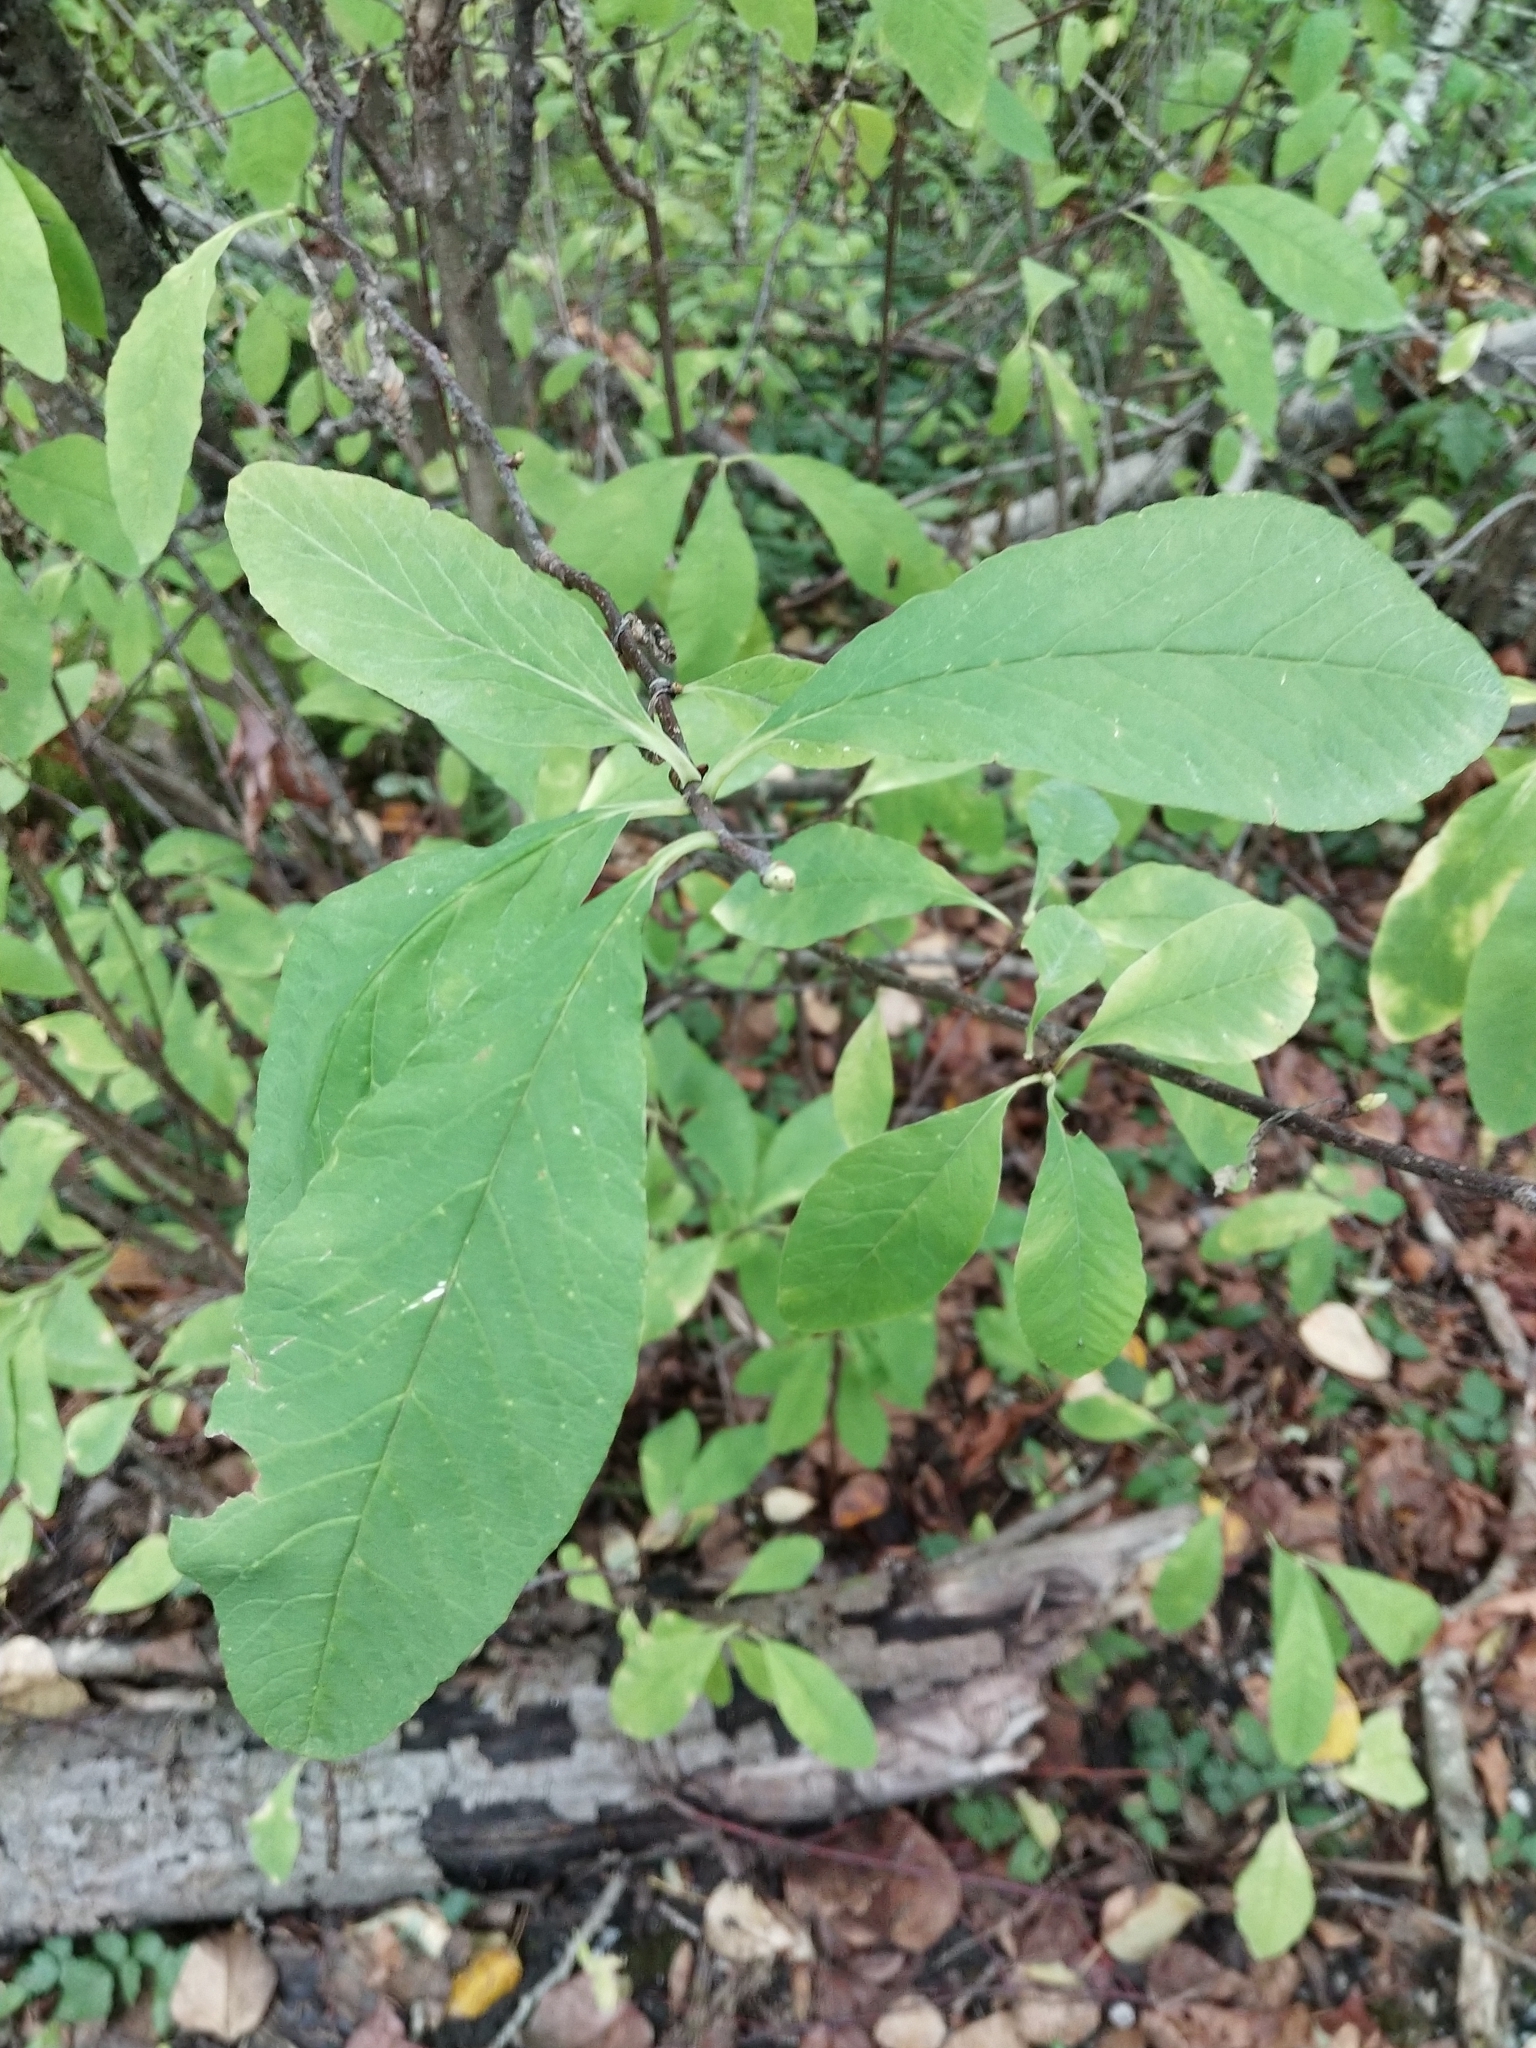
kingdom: Plantae
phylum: Tracheophyta
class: Magnoliopsida
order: Rosales
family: Rosaceae
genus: Oemleria
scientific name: Oemleria cerasiformis
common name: Osoberry
